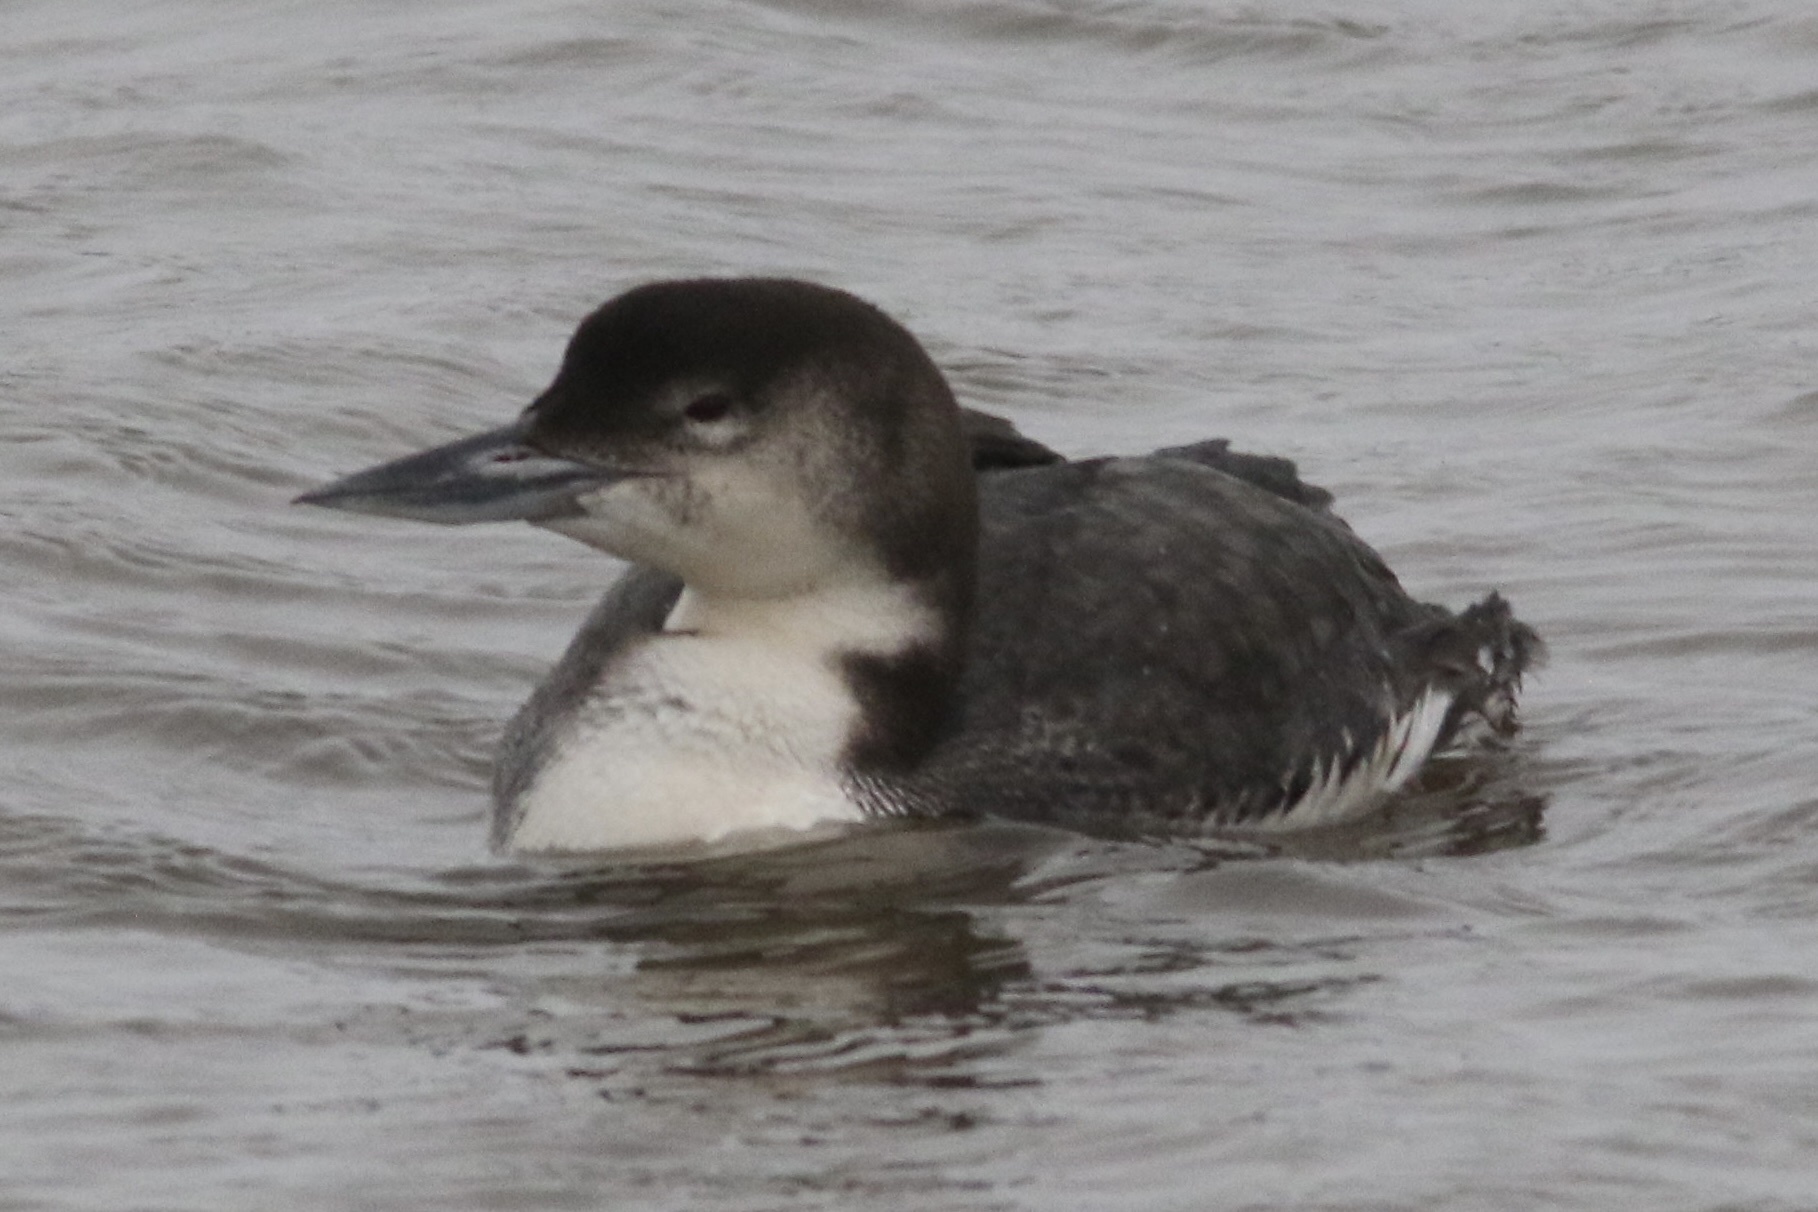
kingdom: Animalia
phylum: Chordata
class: Aves
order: Gaviiformes
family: Gaviidae
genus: Gavia
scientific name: Gavia immer
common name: Common loon
